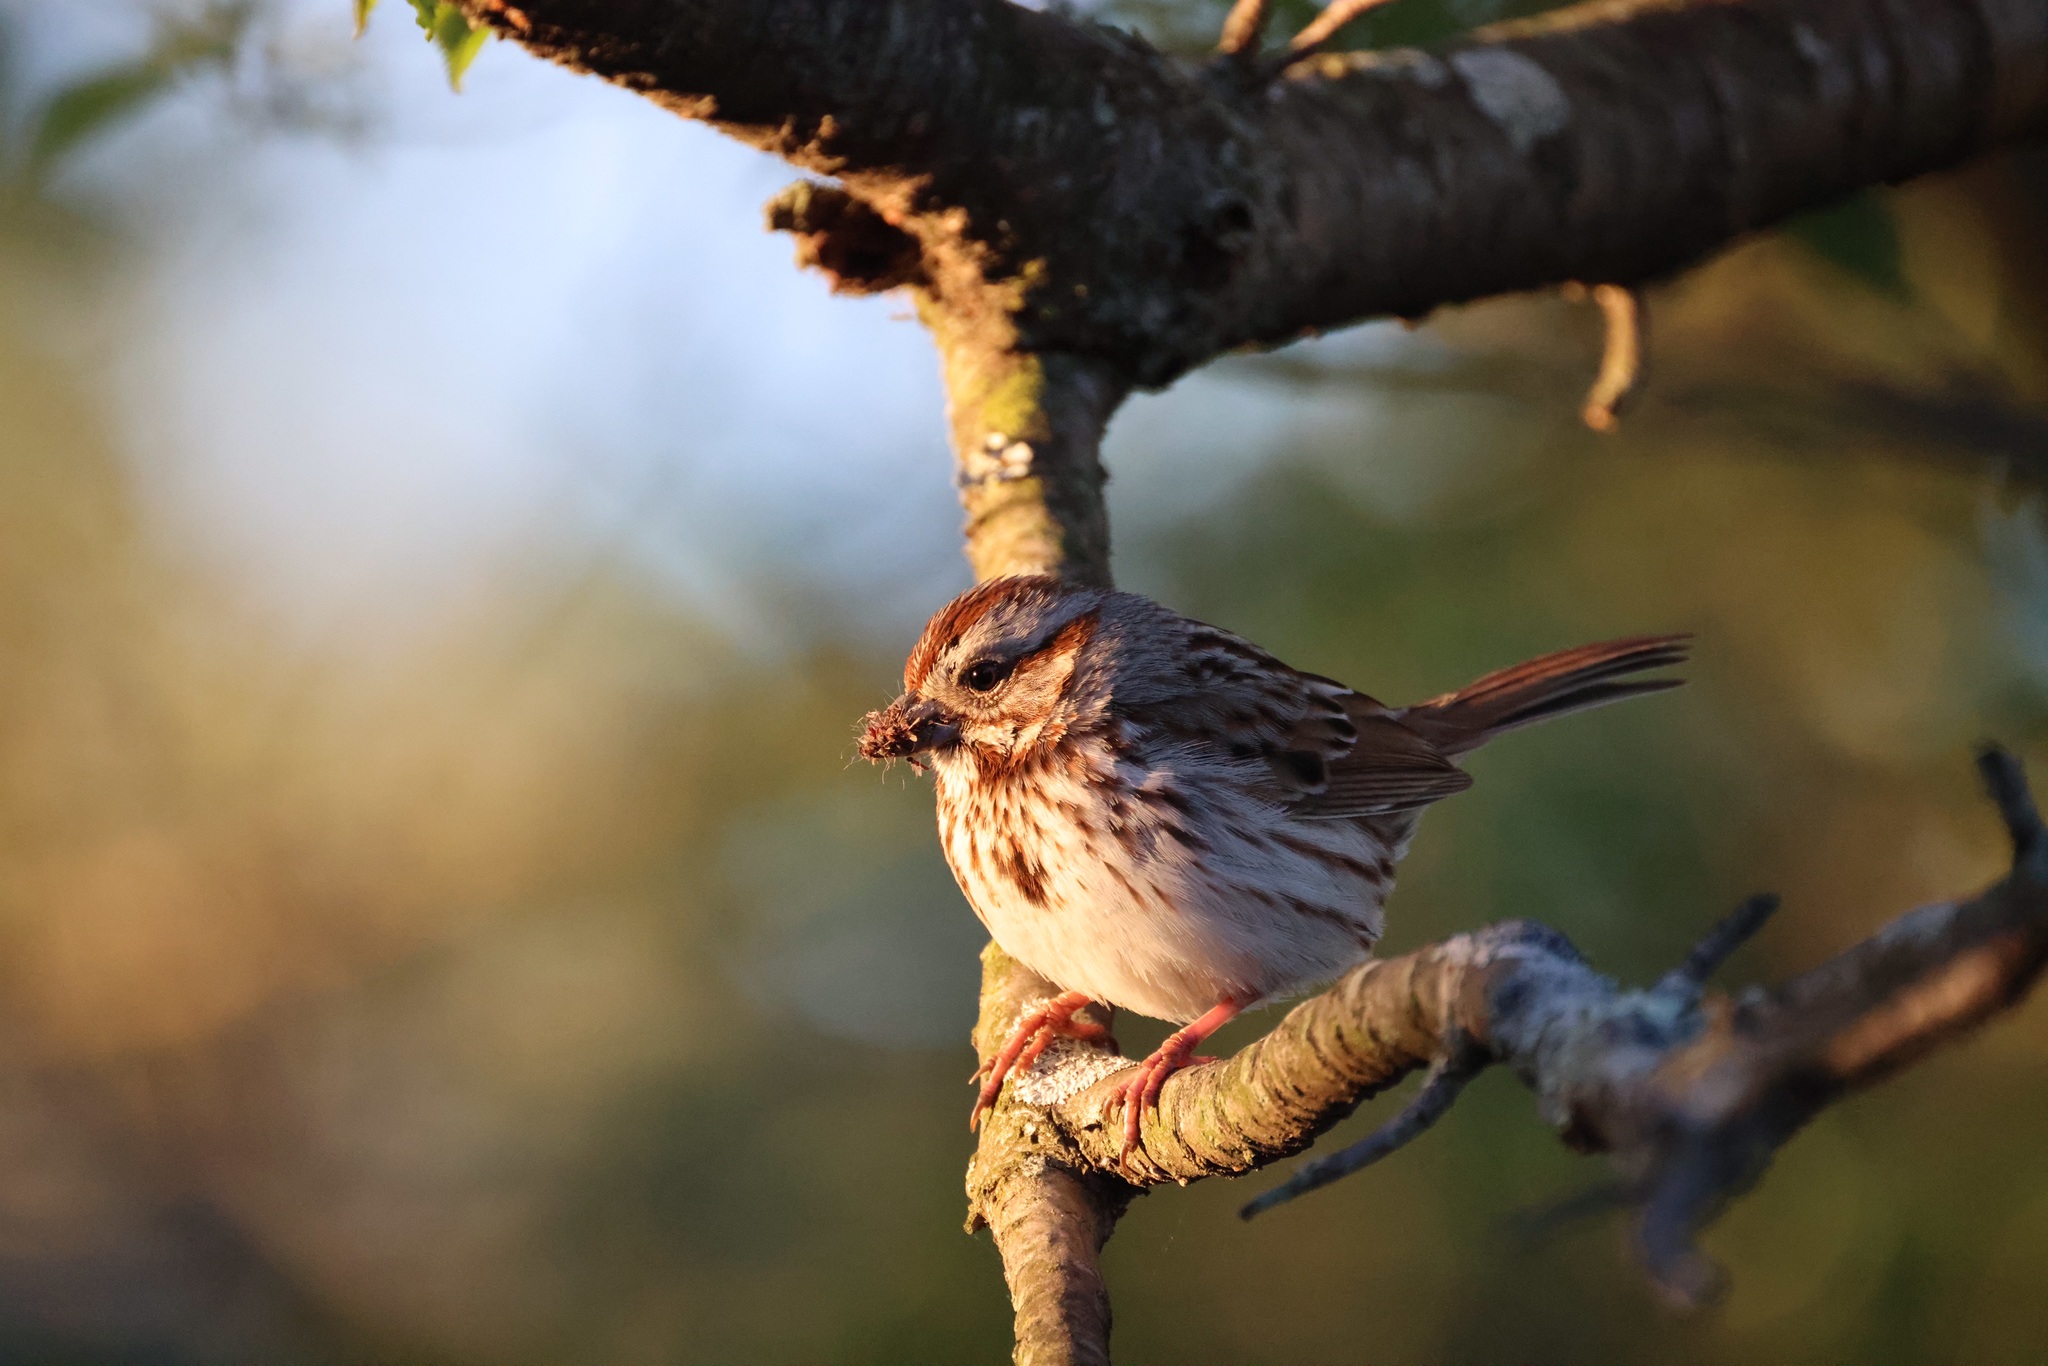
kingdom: Animalia
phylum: Chordata
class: Aves
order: Passeriformes
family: Passerellidae
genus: Melospiza
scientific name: Melospiza melodia
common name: Song sparrow
